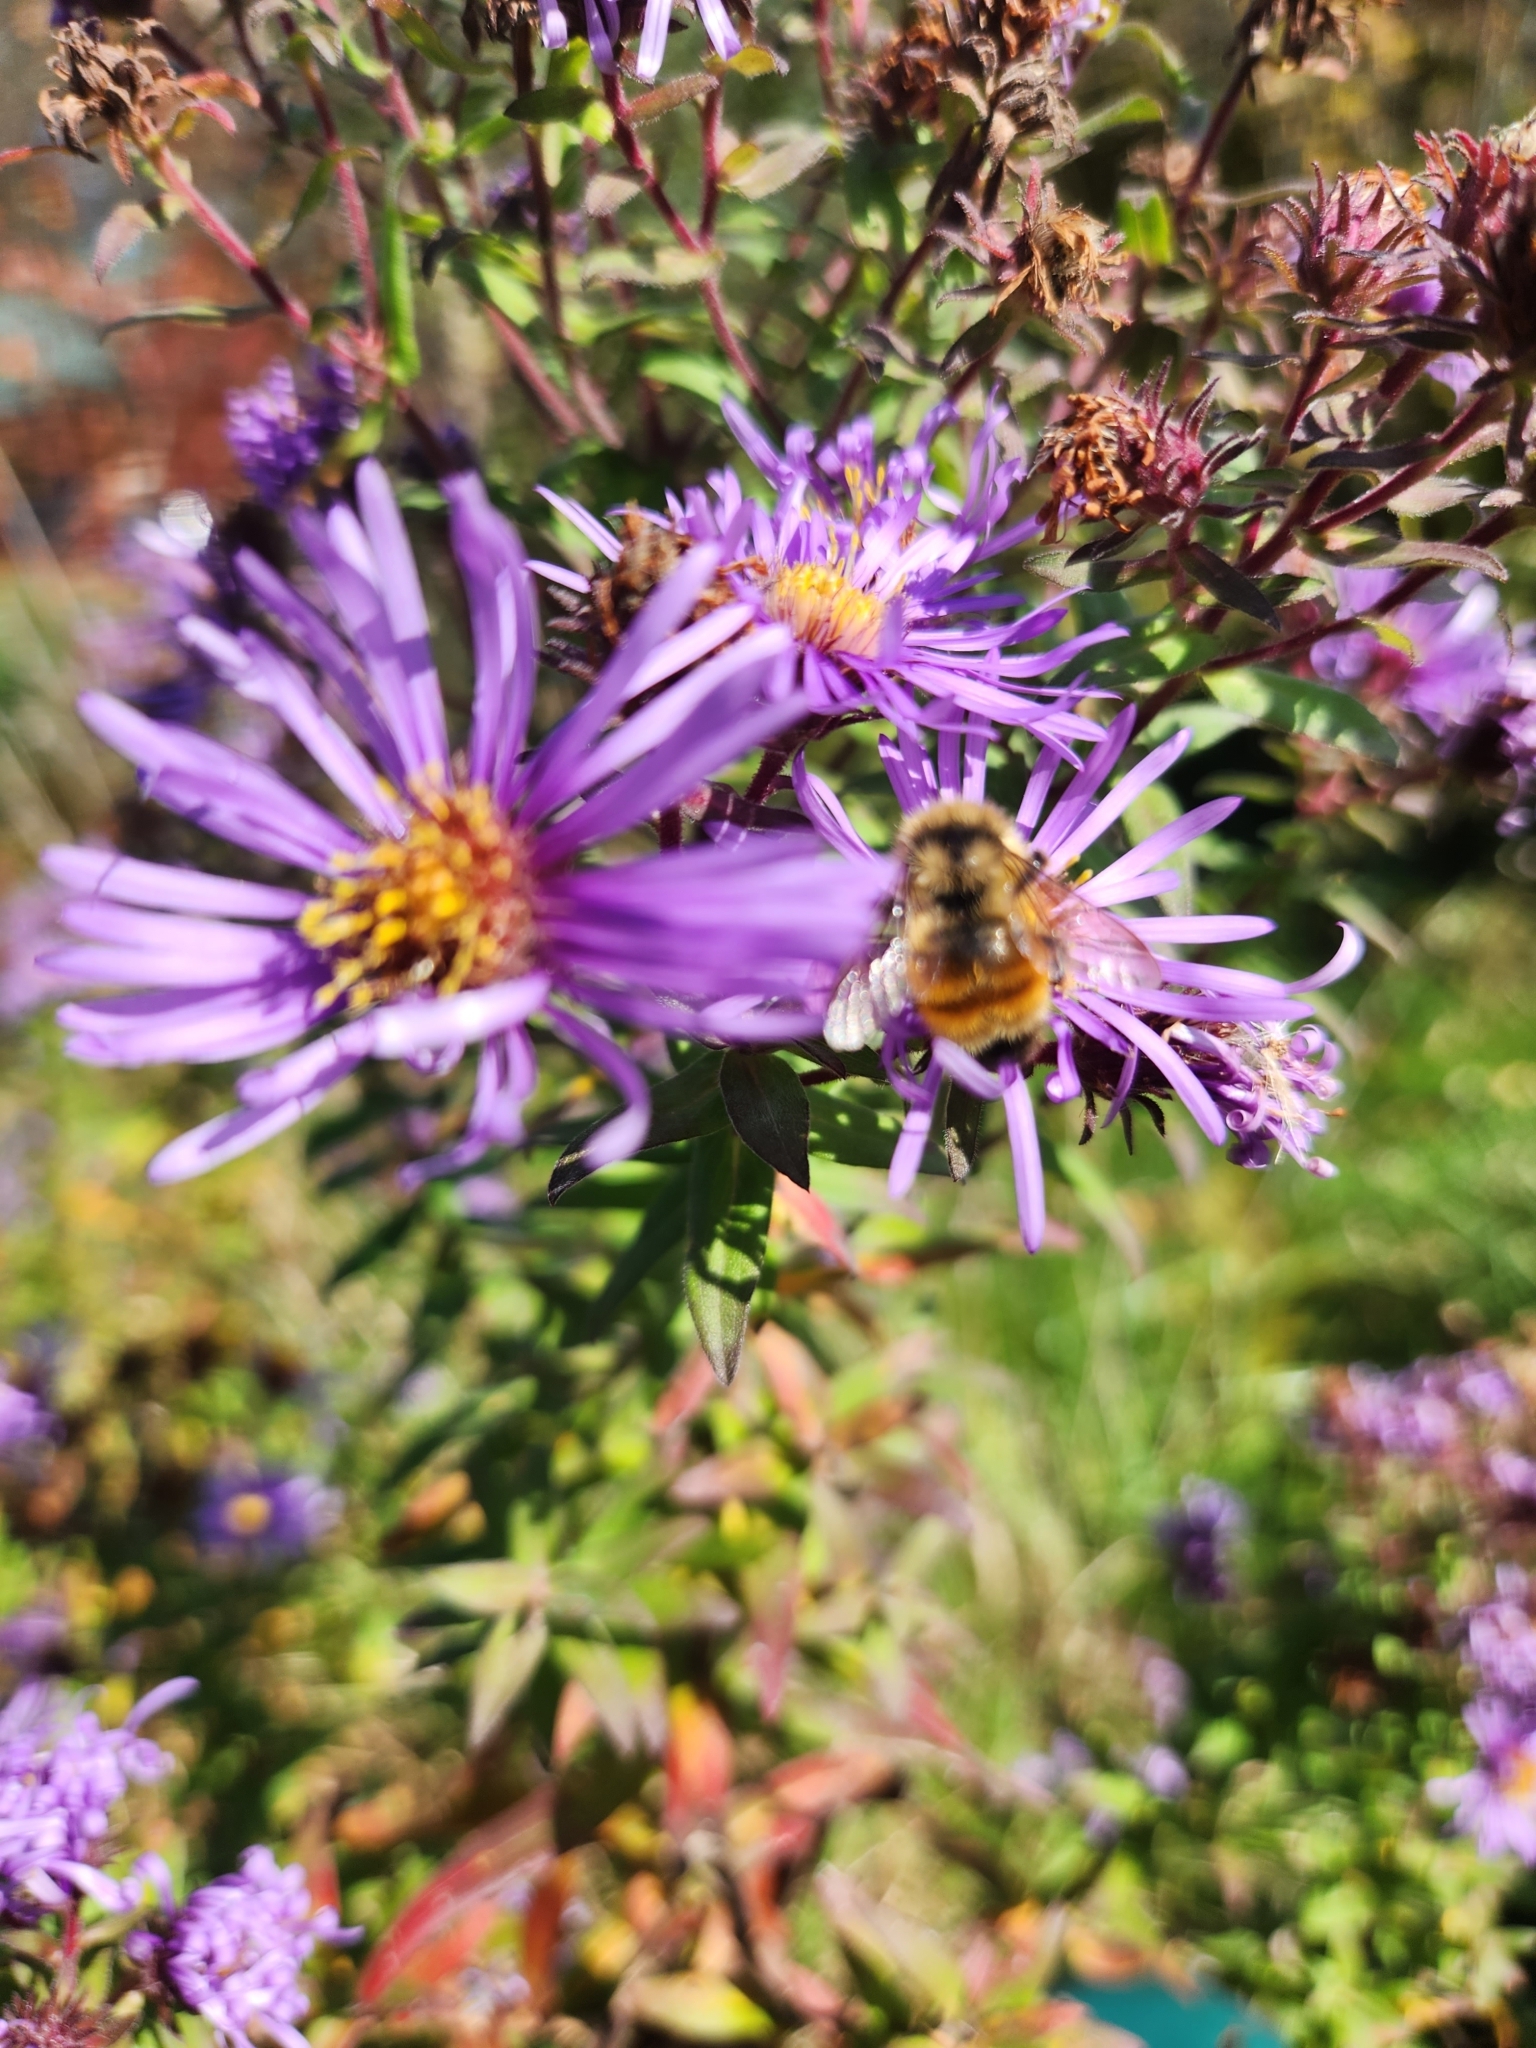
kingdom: Animalia
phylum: Arthropoda
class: Insecta
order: Hymenoptera
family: Apidae
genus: Bombus
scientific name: Bombus ternarius
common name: Tri-colored bumble bee
